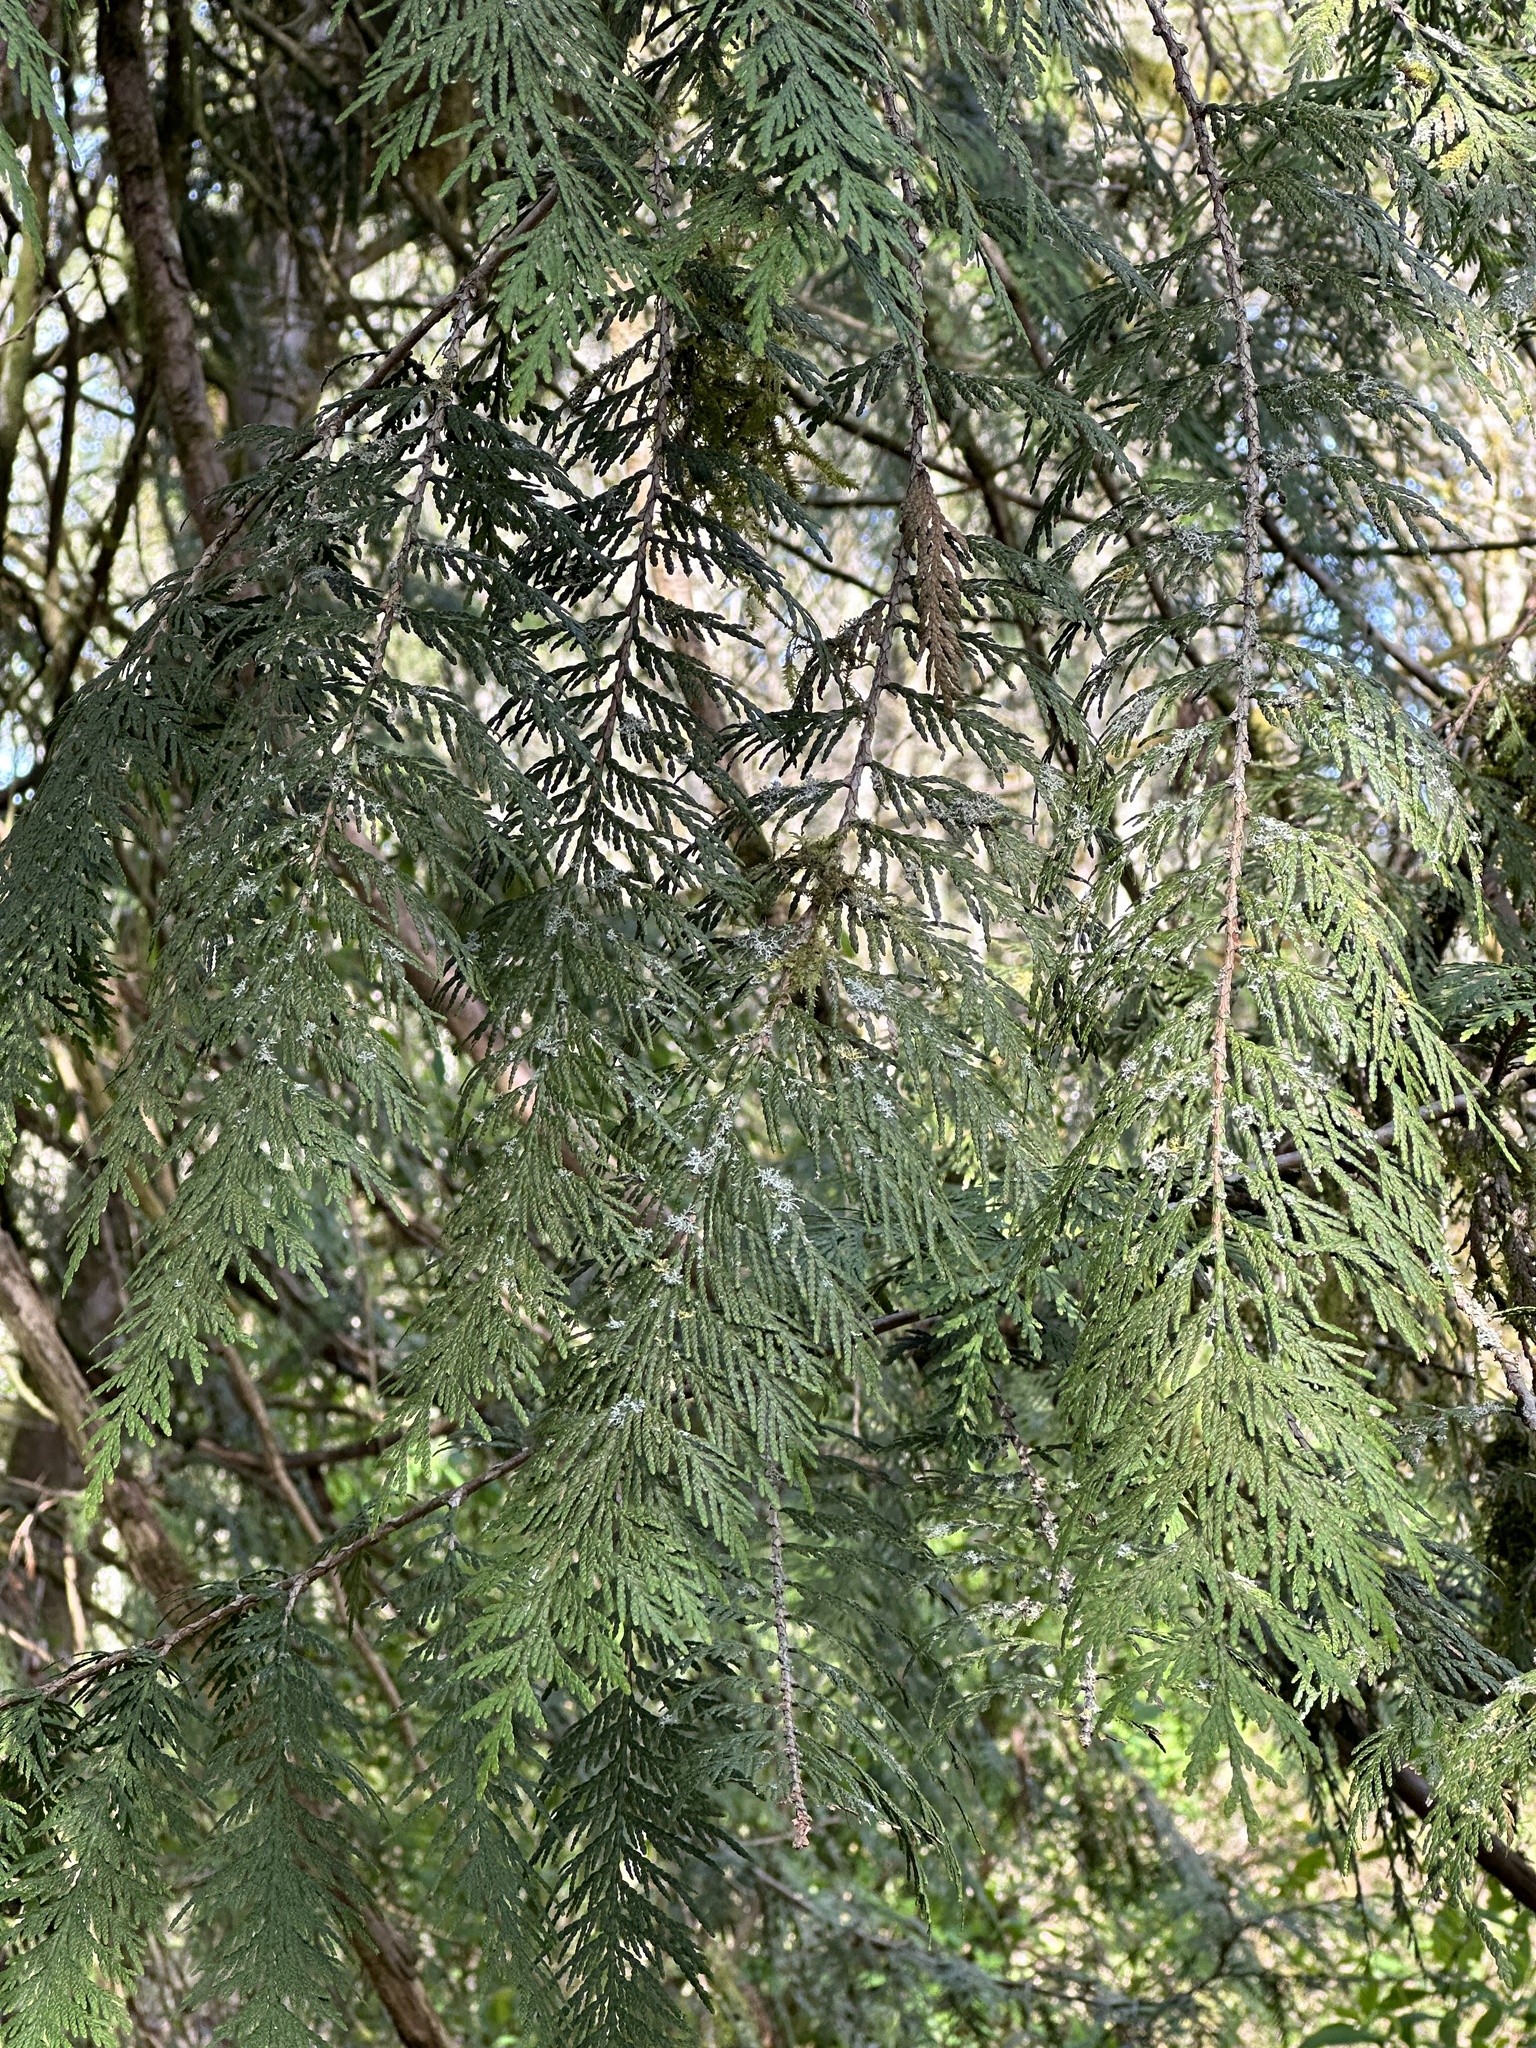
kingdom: Plantae
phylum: Tracheophyta
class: Pinopsida
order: Pinales
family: Cupressaceae
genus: Thuja
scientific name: Thuja plicata
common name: Western red-cedar
